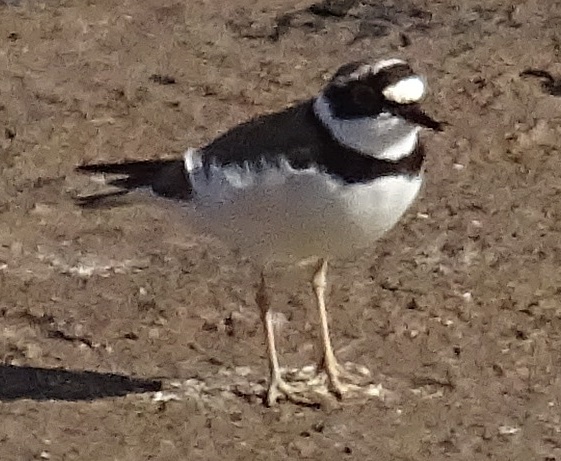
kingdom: Animalia
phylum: Chordata
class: Aves
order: Charadriiformes
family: Charadriidae
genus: Charadrius
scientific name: Charadrius dubius
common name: Little ringed plover
